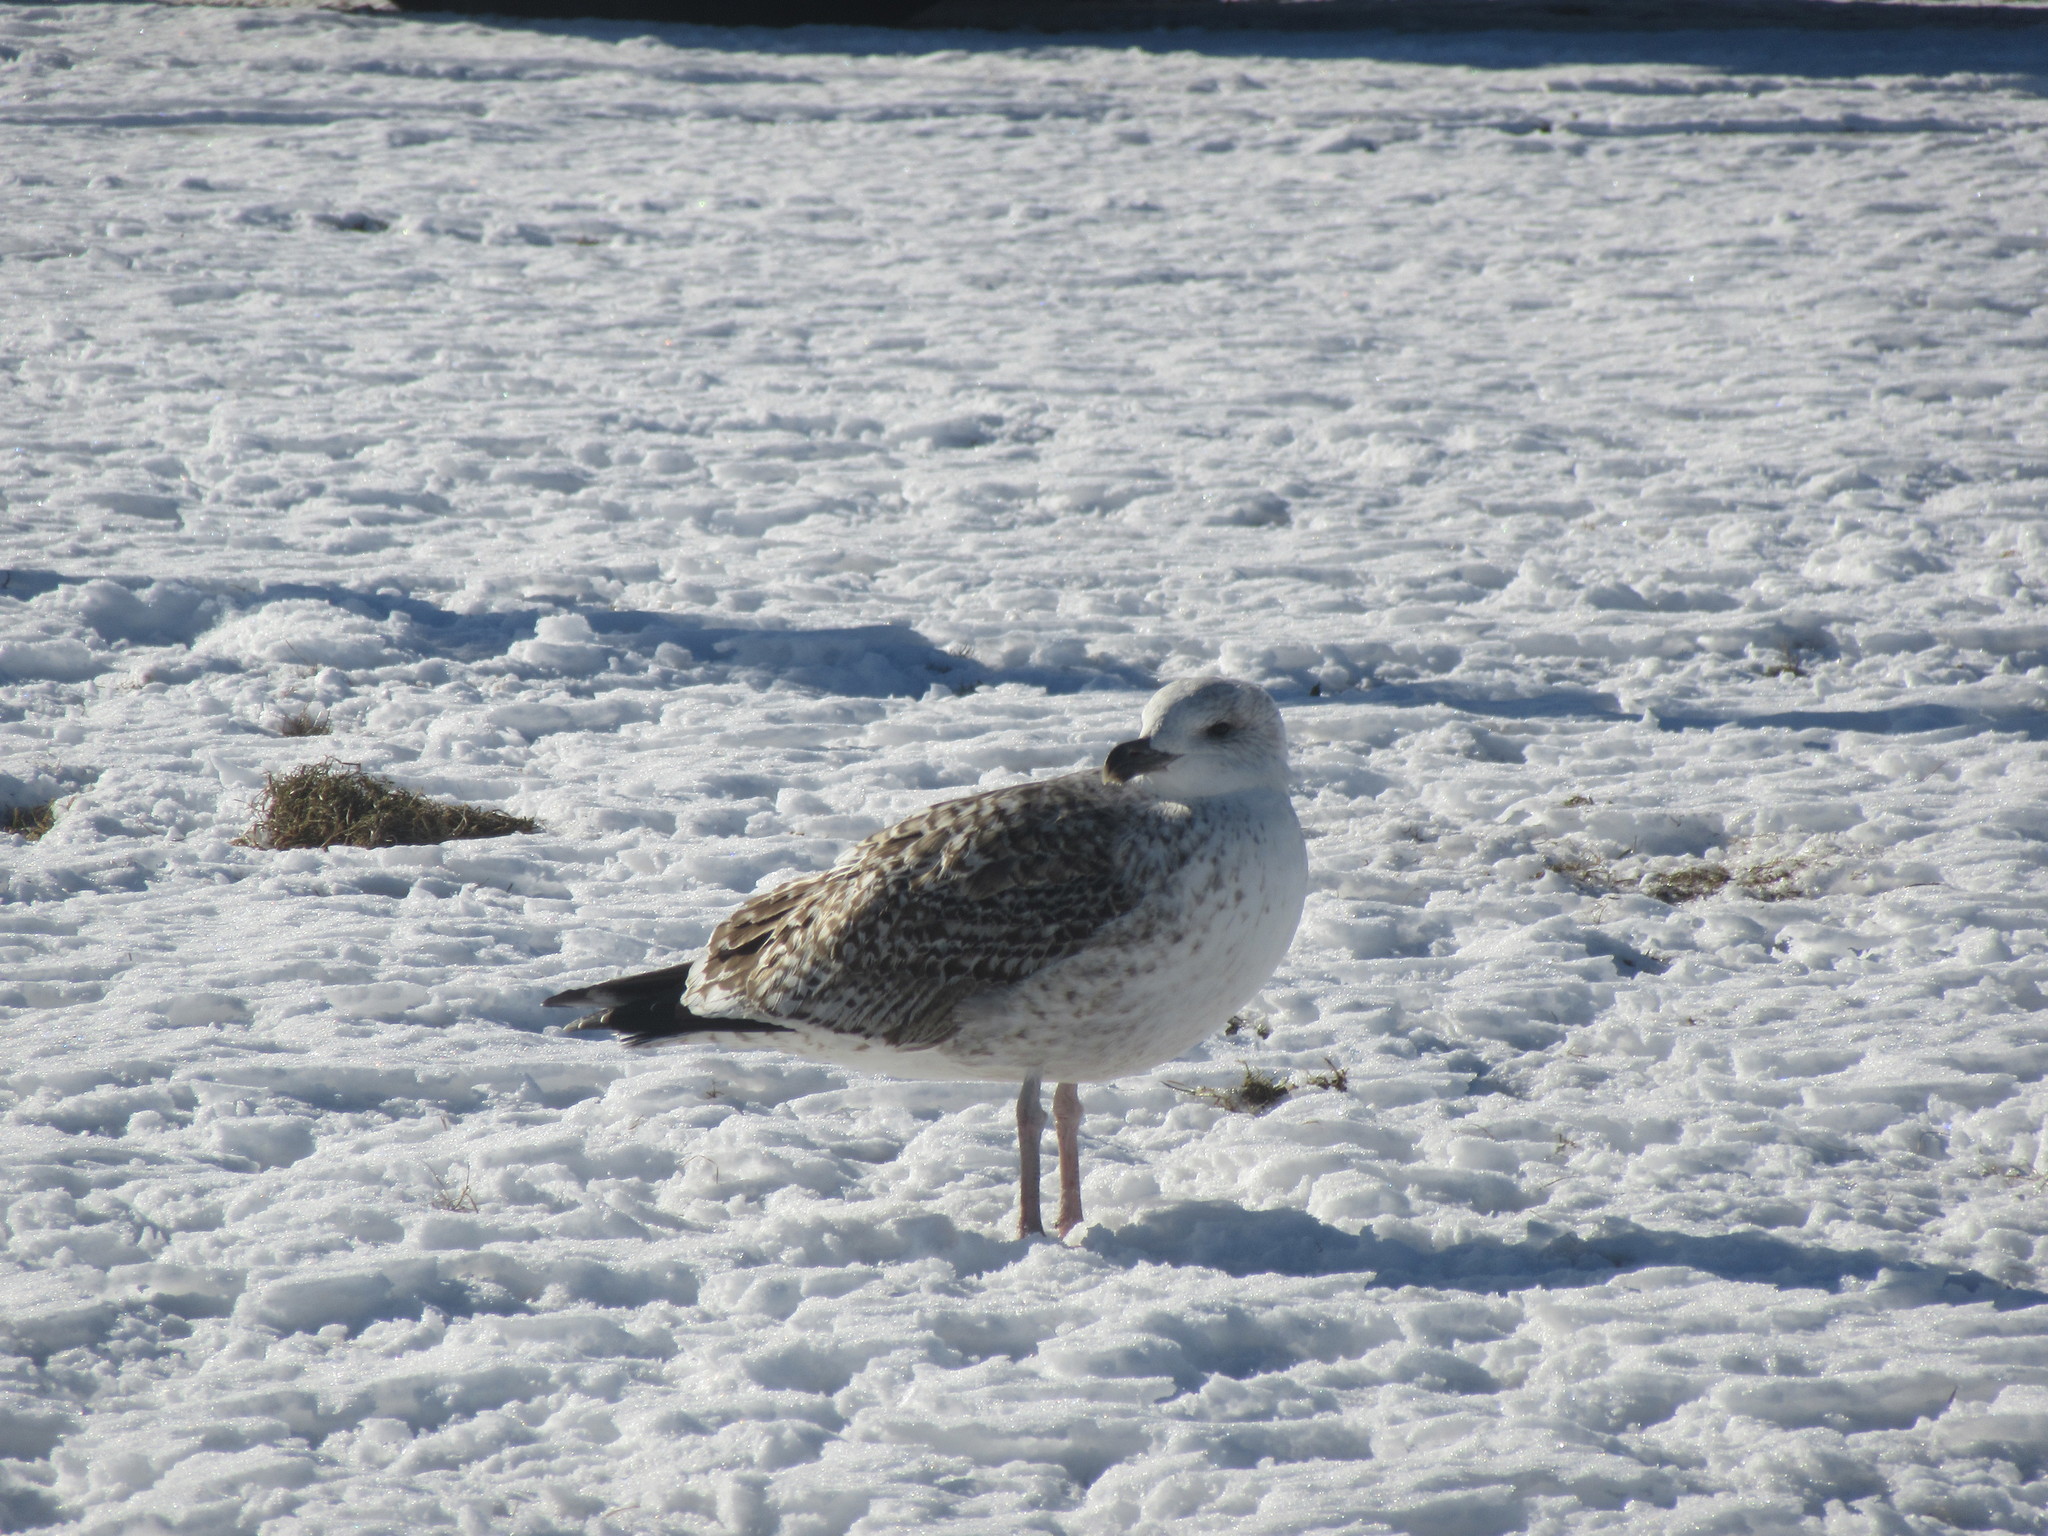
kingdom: Animalia
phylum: Chordata
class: Aves
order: Charadriiformes
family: Laridae
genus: Larus
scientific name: Larus marinus
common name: Great black-backed gull
